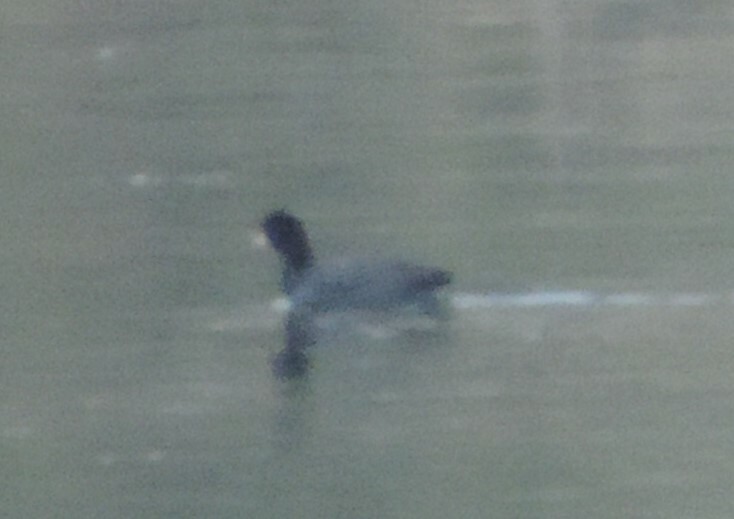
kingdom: Animalia
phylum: Chordata
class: Aves
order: Gruiformes
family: Rallidae
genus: Fulica
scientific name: Fulica americana
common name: American coot
